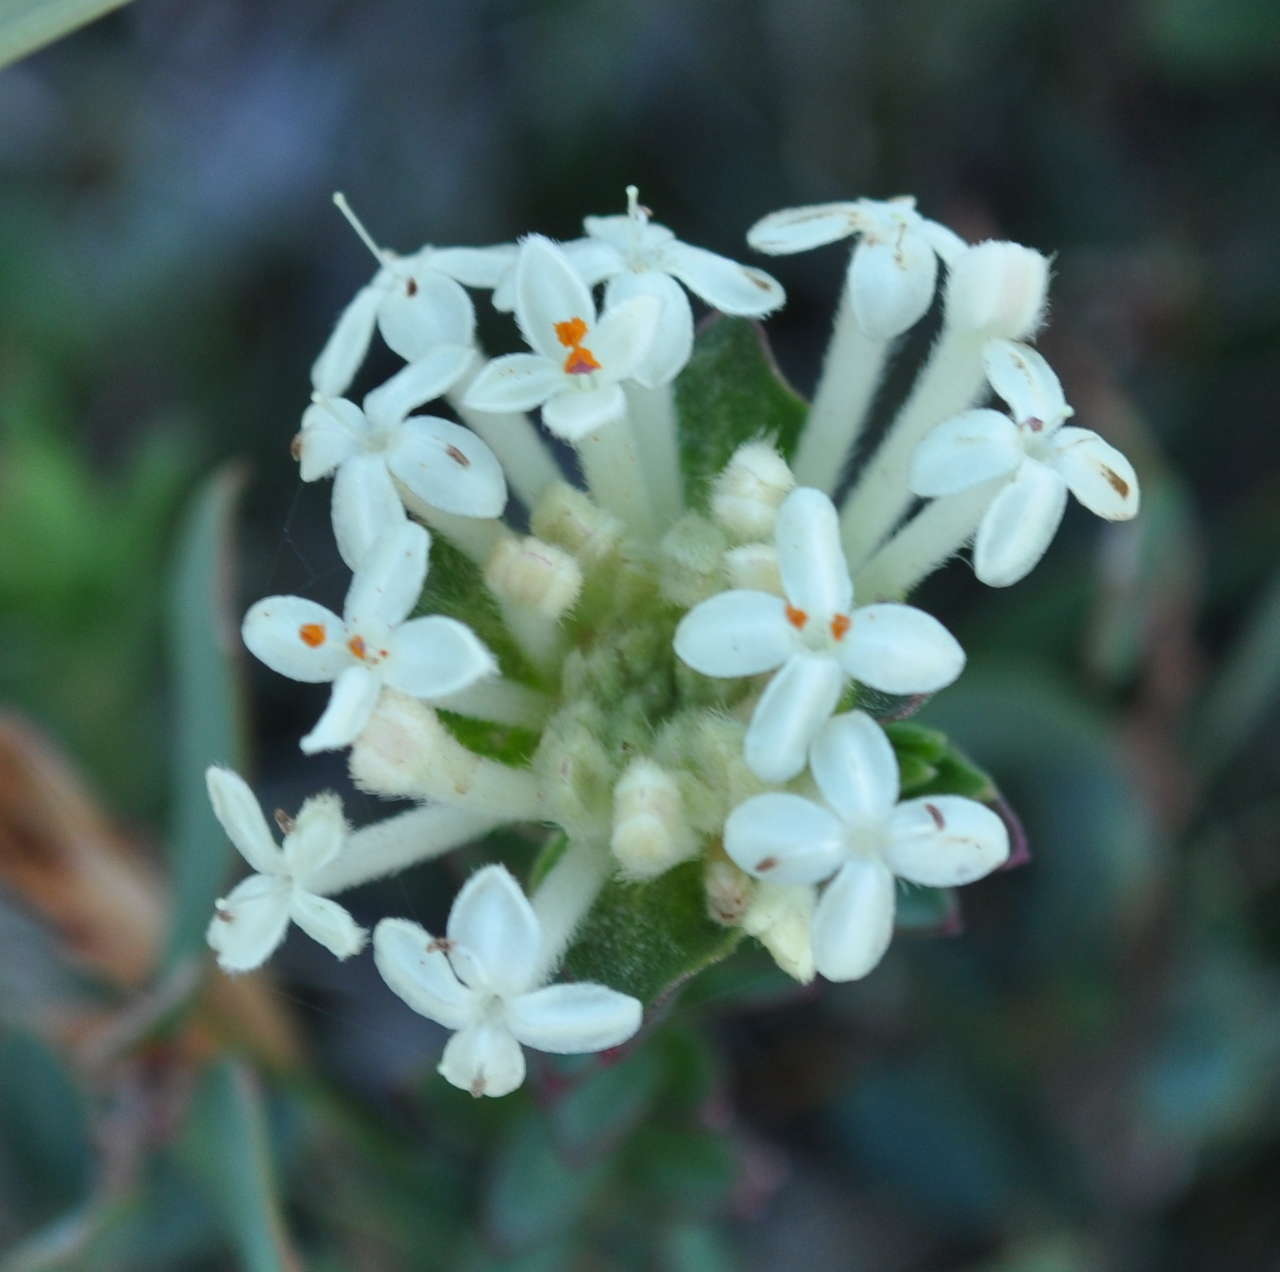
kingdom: Plantae
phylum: Tracheophyta
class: Magnoliopsida
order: Malvales
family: Thymelaeaceae
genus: Pimelea
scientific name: Pimelea humilis
